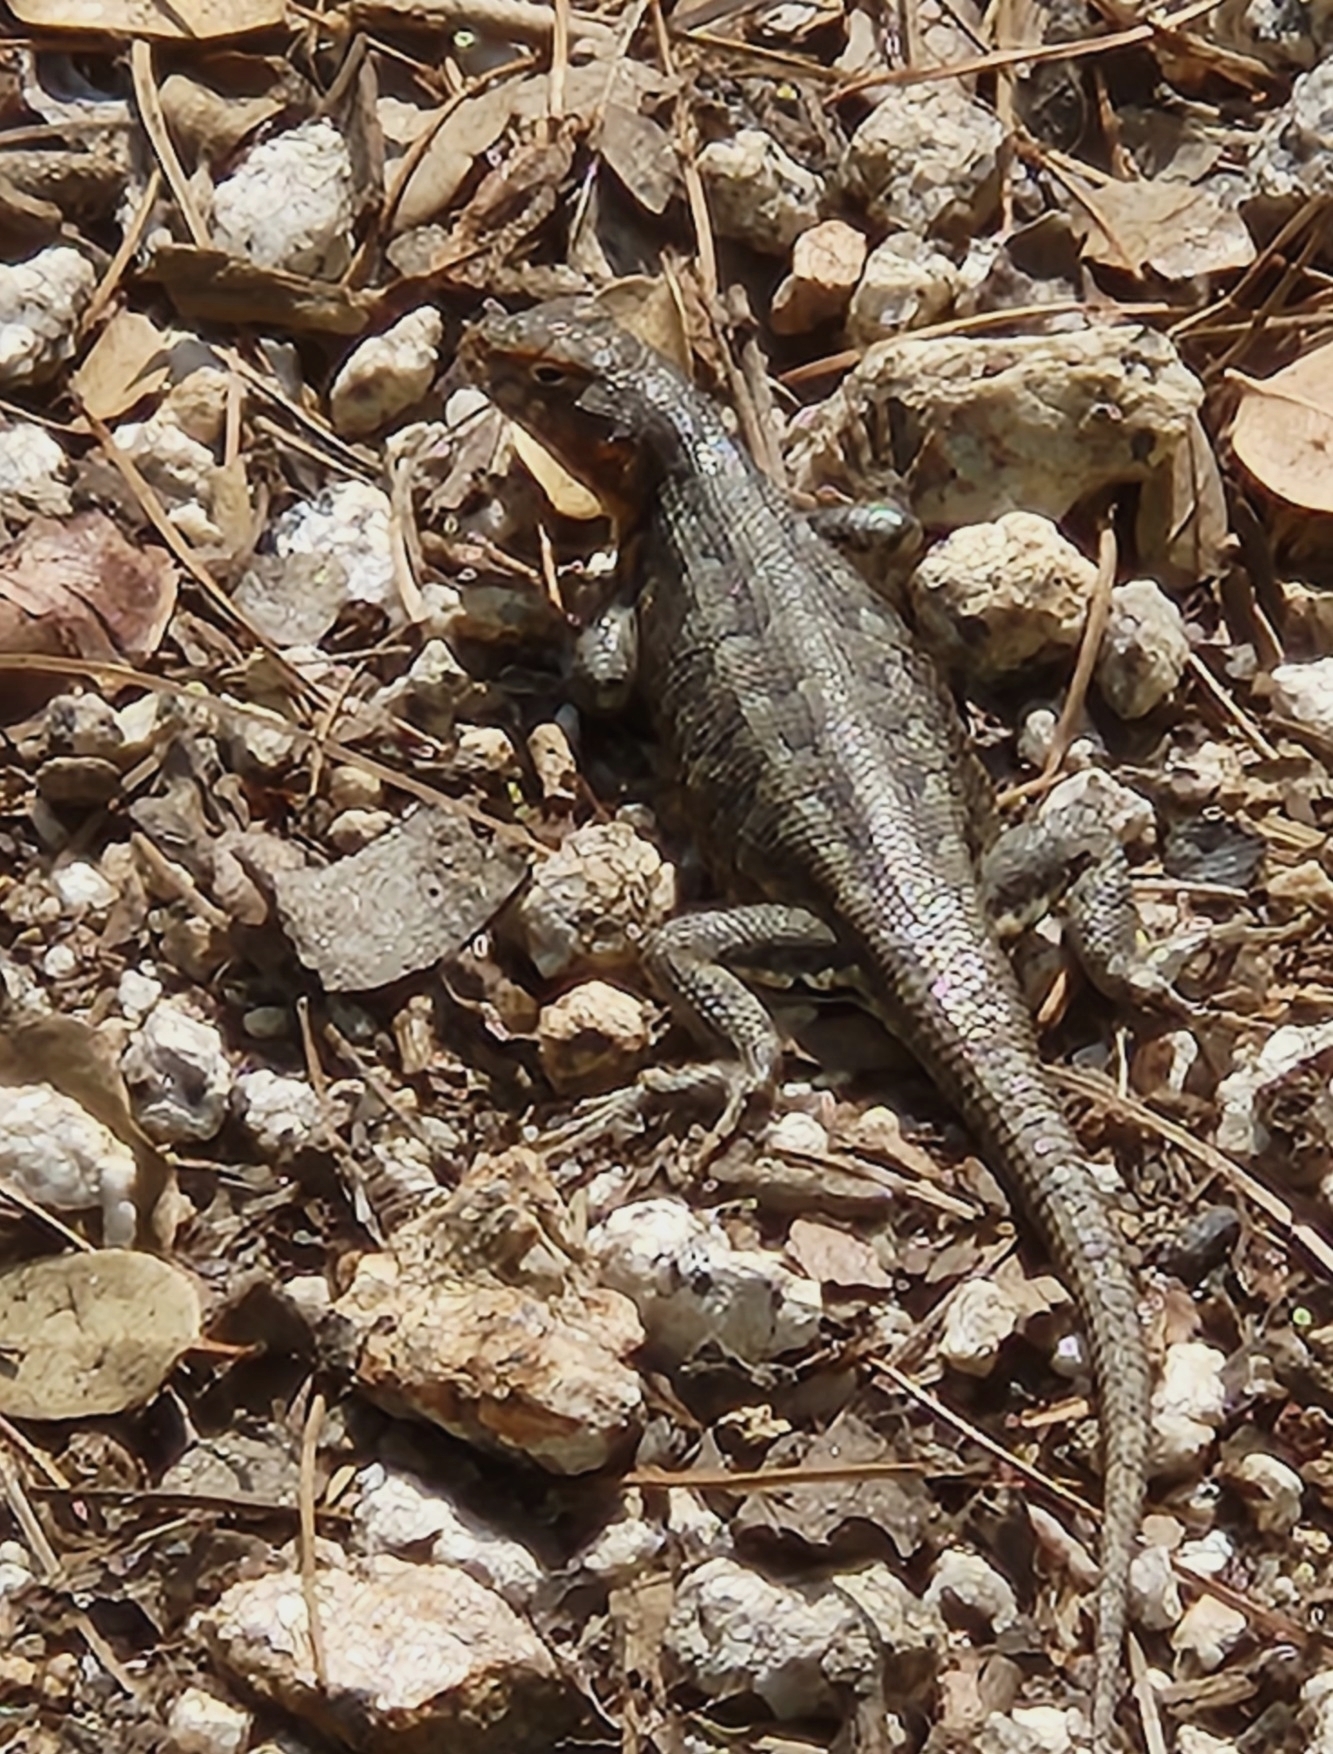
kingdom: Animalia
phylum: Chordata
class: Squamata
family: Phrynosomatidae
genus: Sceloporus
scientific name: Sceloporus graciosus
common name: Sagebrush lizard
